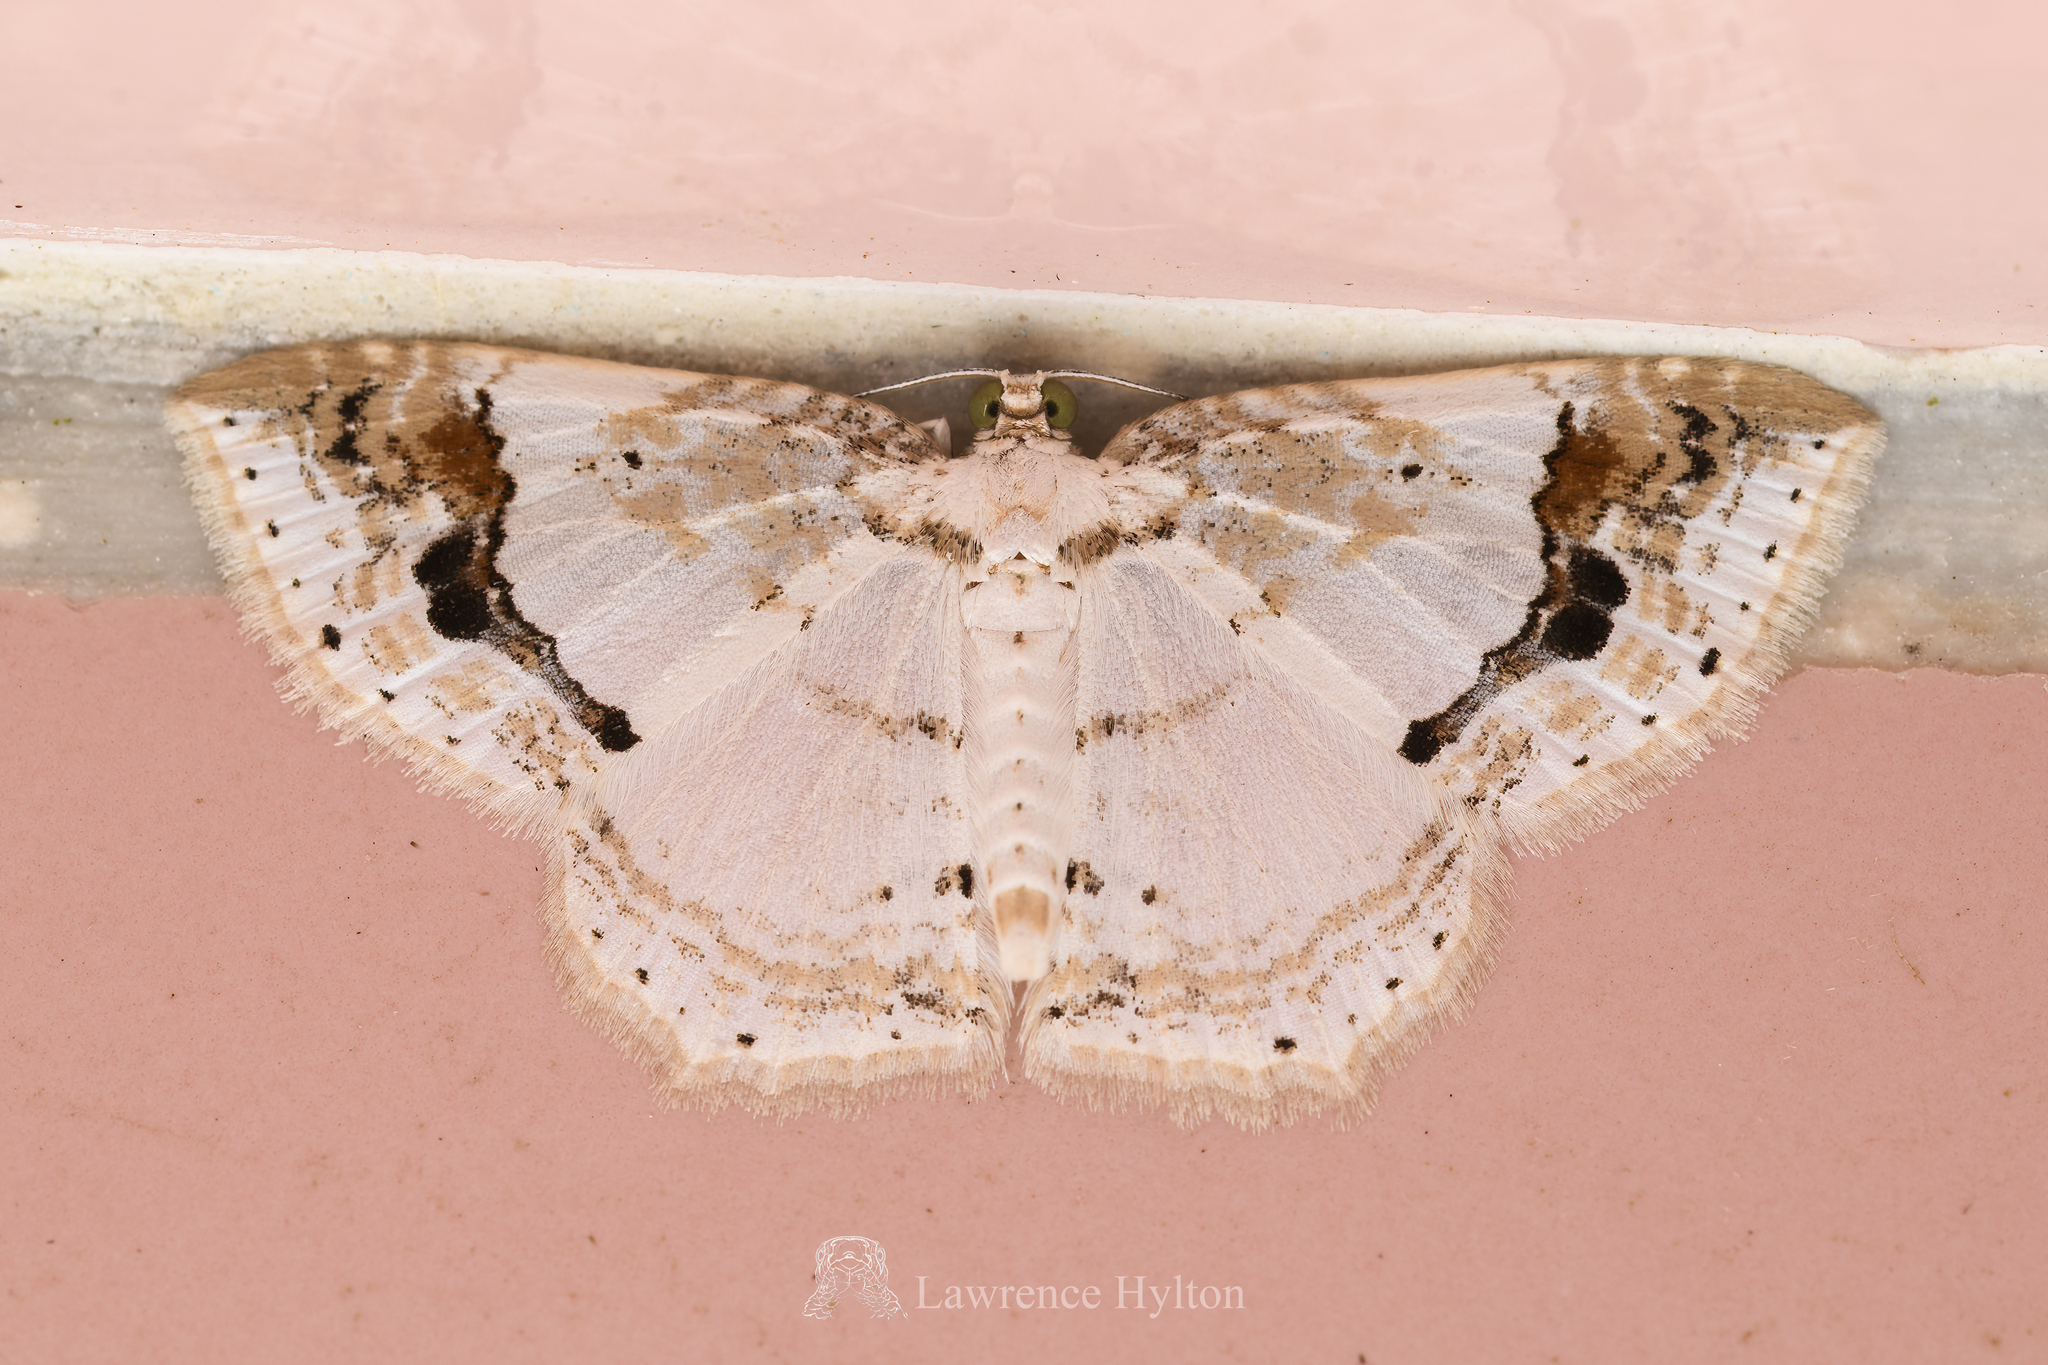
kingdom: Animalia
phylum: Arthropoda
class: Insecta
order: Lepidoptera
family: Geometridae
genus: Asthena
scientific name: Asthena undulata
